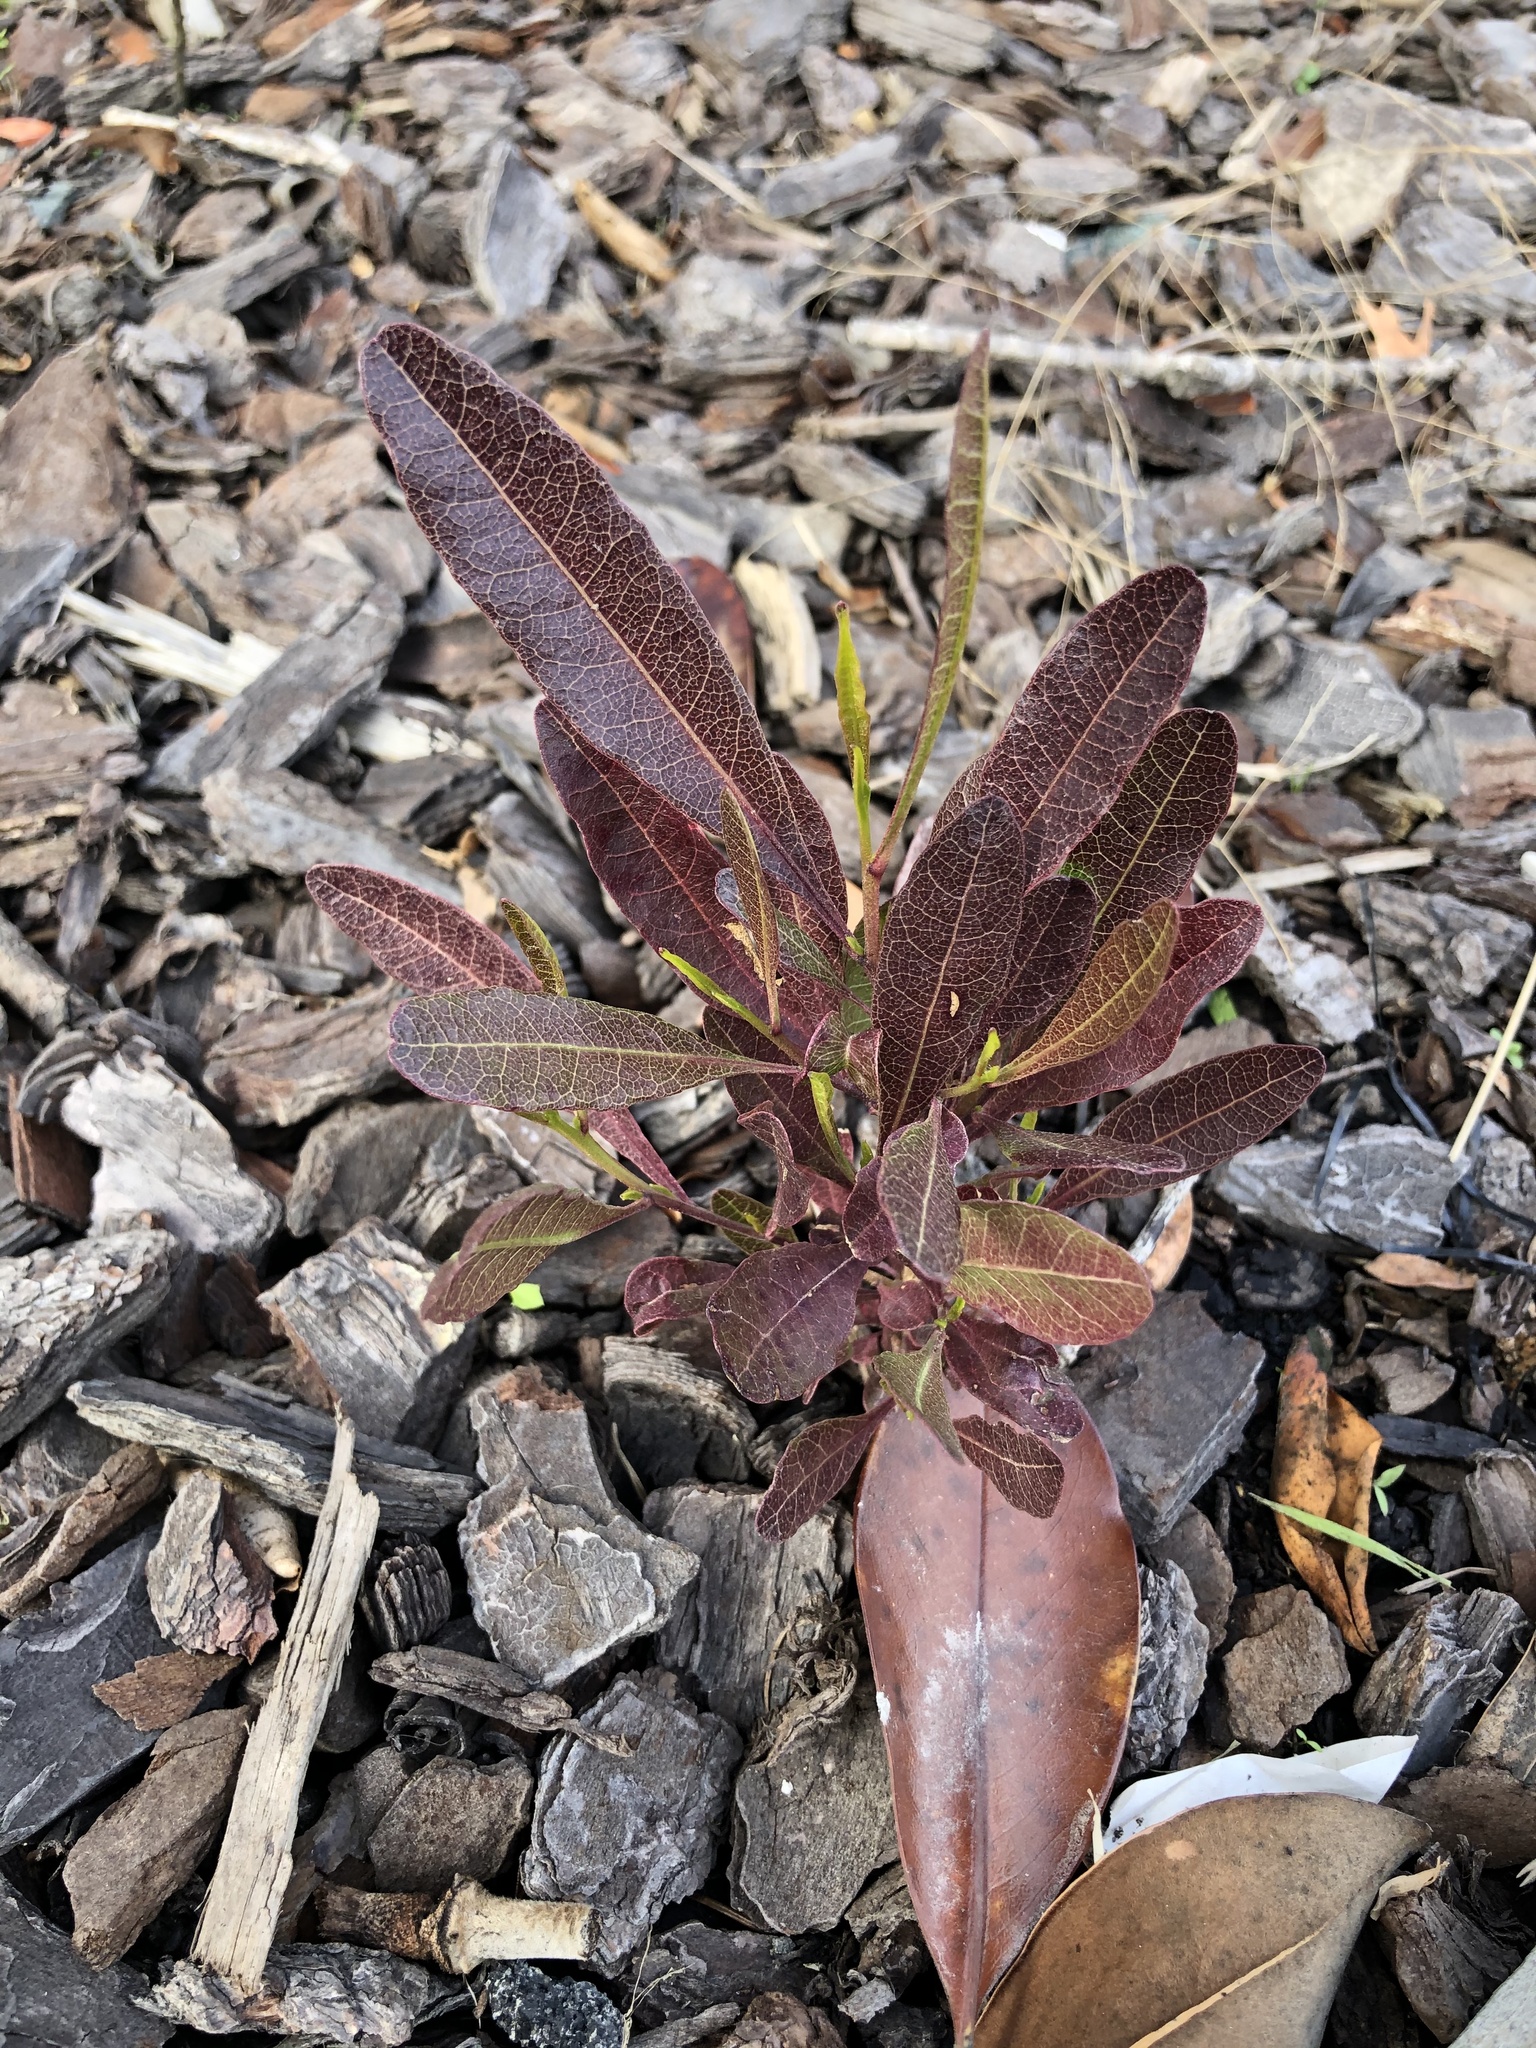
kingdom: Plantae
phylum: Tracheophyta
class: Magnoliopsida
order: Sapindales
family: Sapindaceae
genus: Dodonaea
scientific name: Dodonaea viscosa
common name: Hopbush
